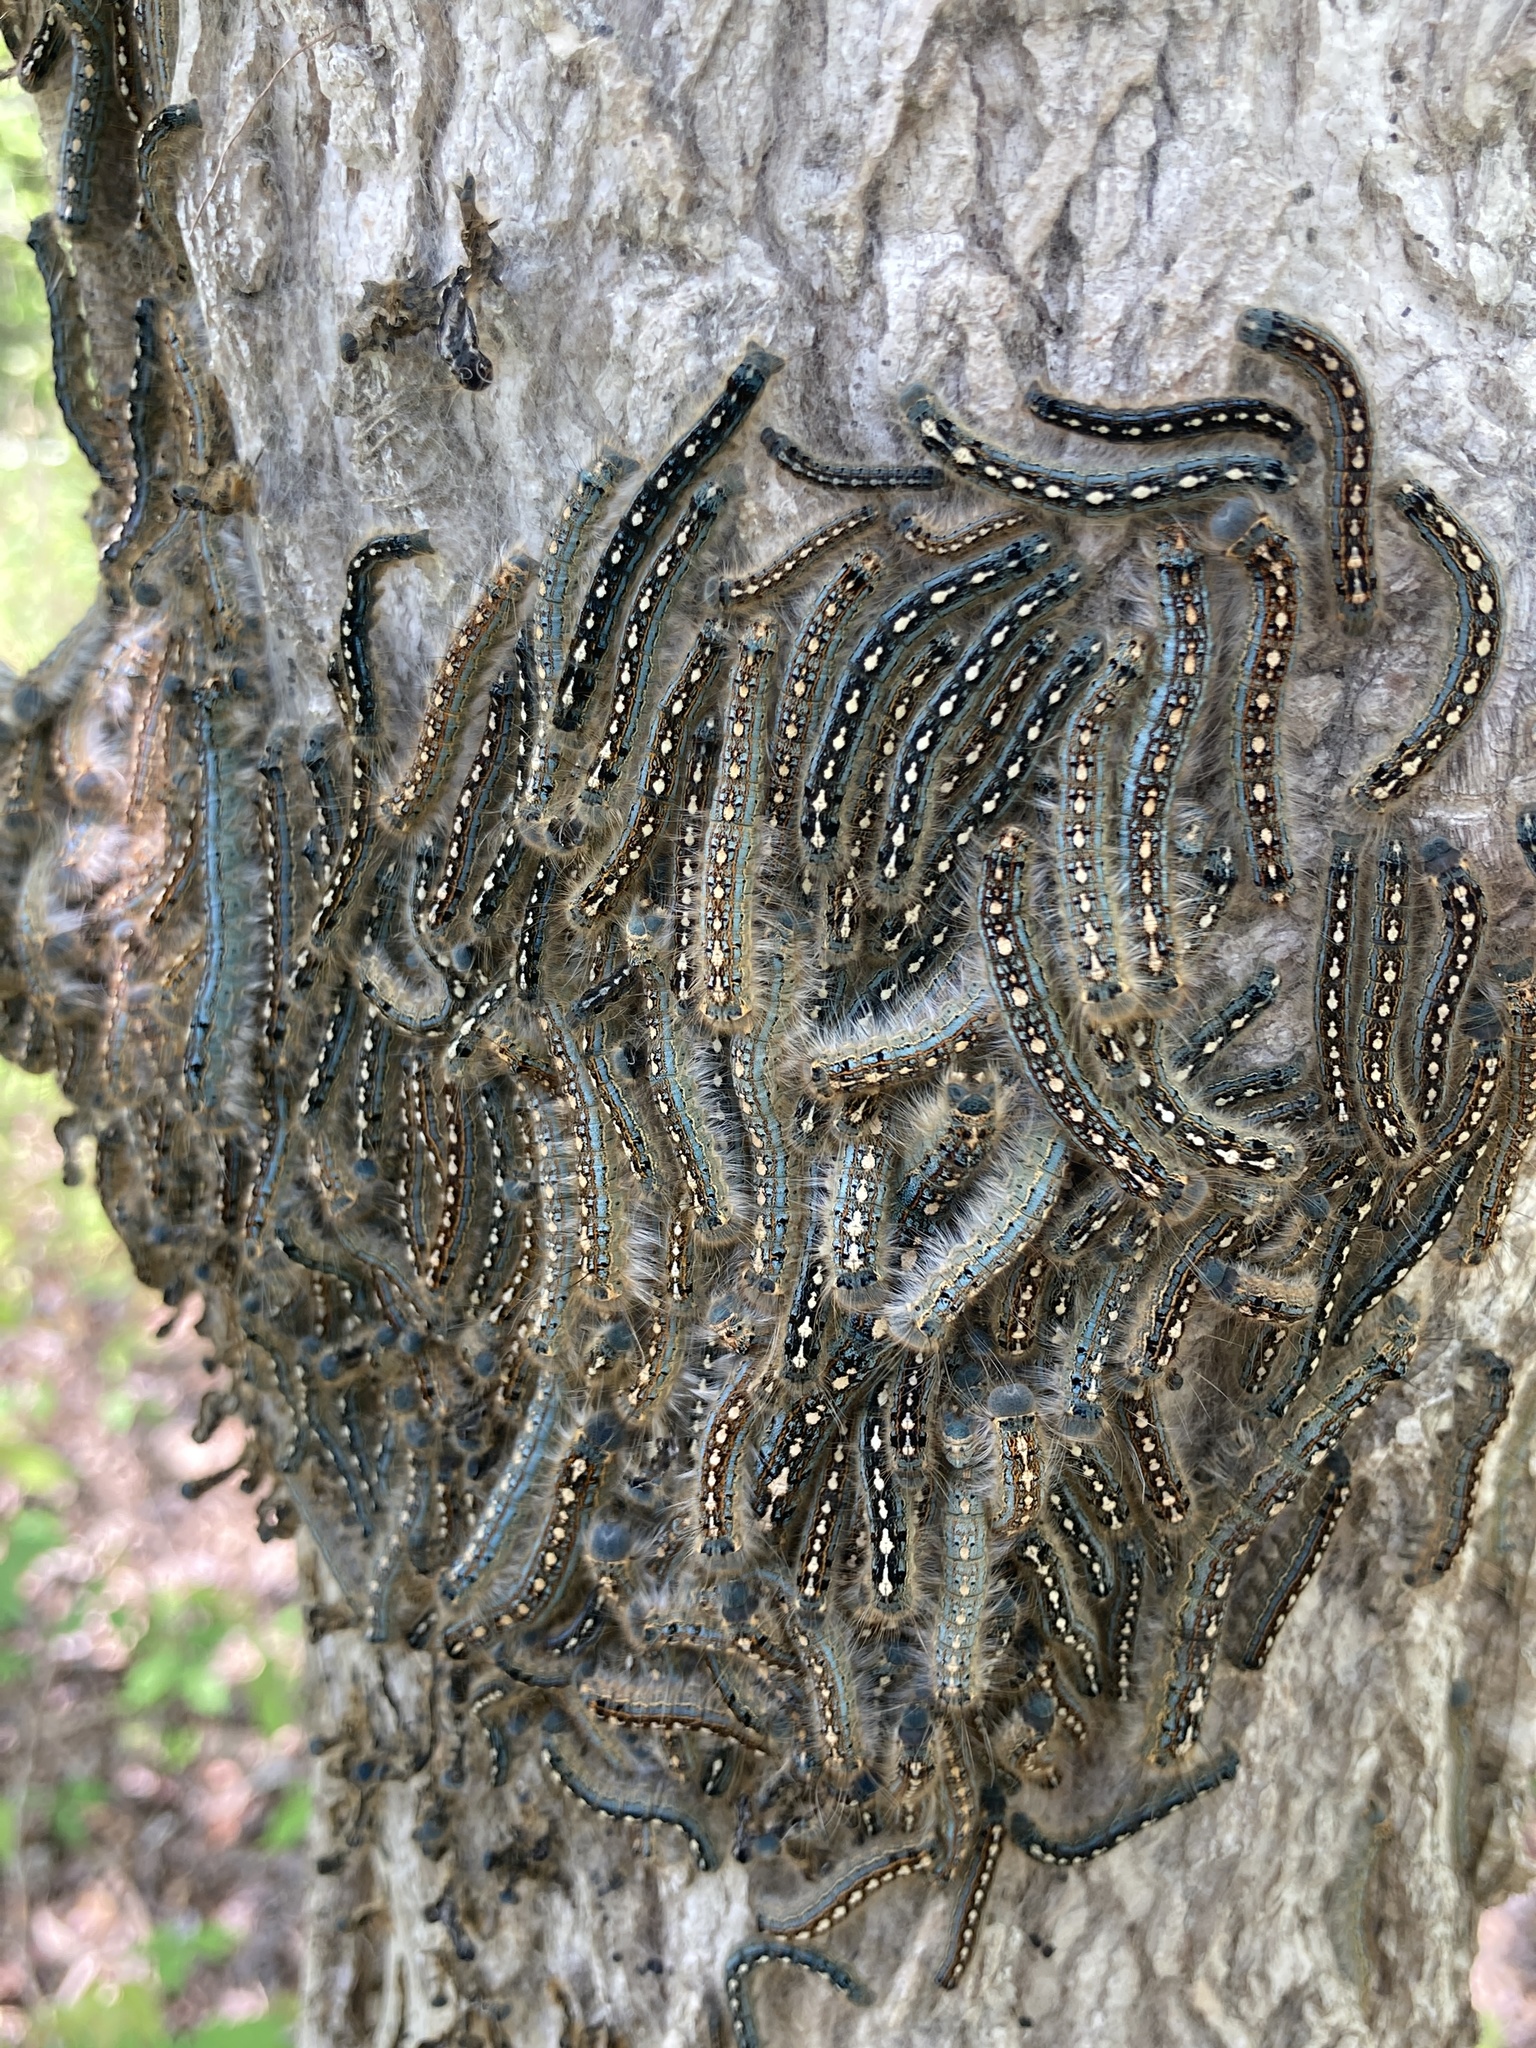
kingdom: Animalia
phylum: Arthropoda
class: Insecta
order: Lepidoptera
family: Lasiocampidae
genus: Malacosoma
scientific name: Malacosoma disstria
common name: Forest tent caterpillar
